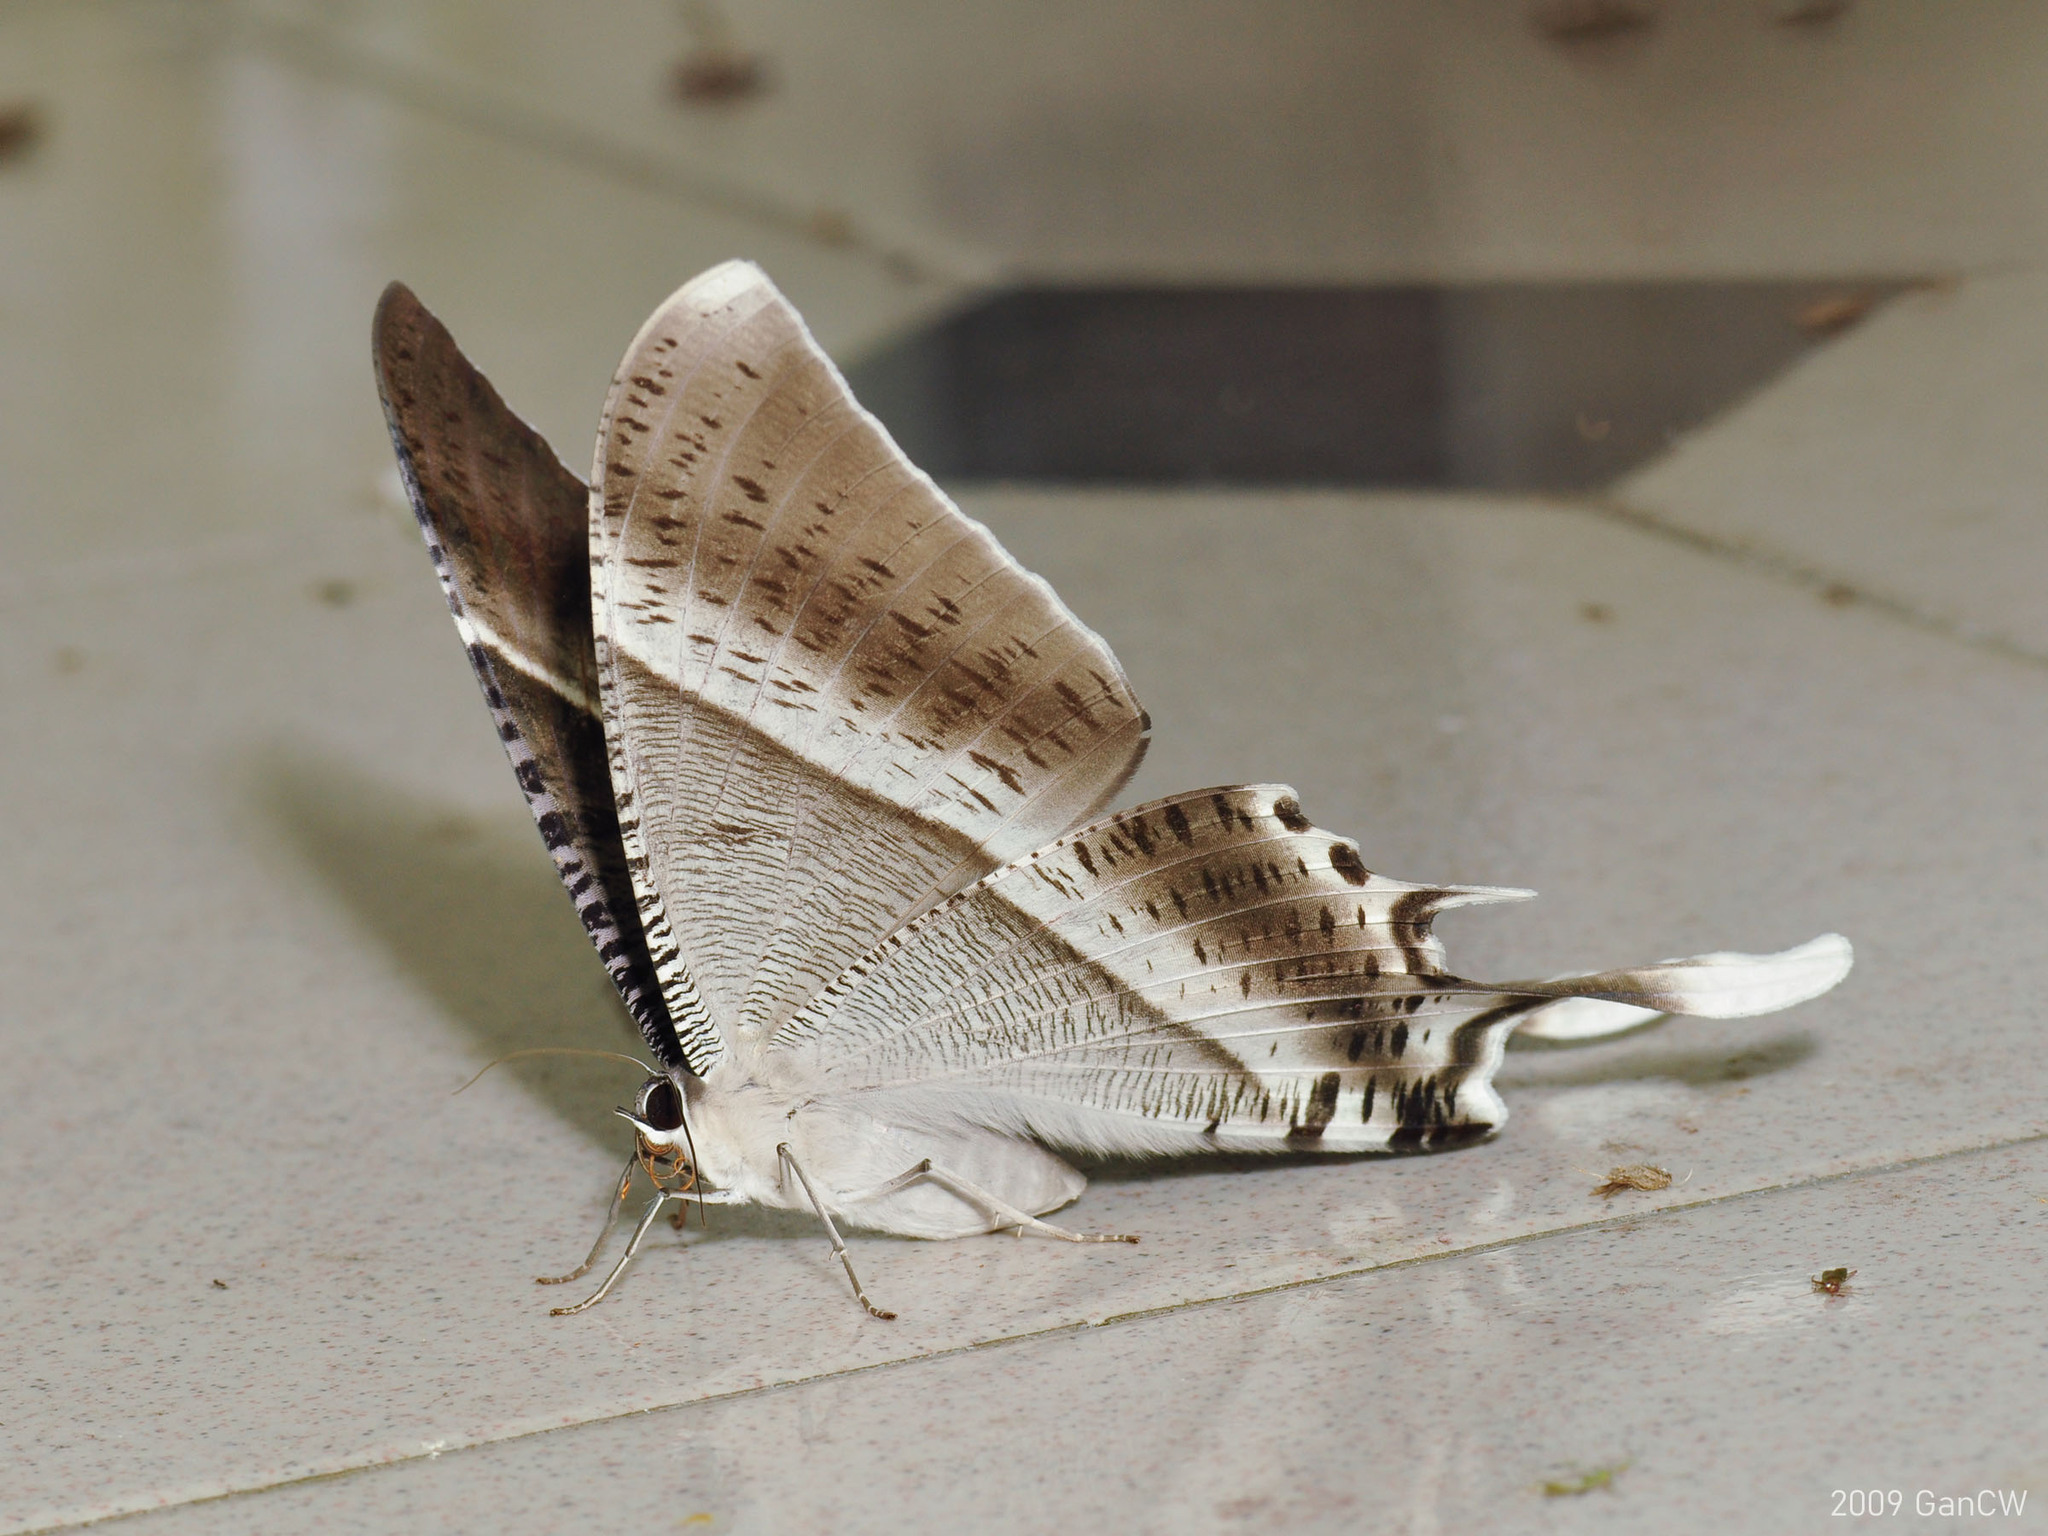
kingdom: Animalia
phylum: Arthropoda
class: Insecta
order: Lepidoptera
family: Uraniidae
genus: Lyssa
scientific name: Lyssa zampa
